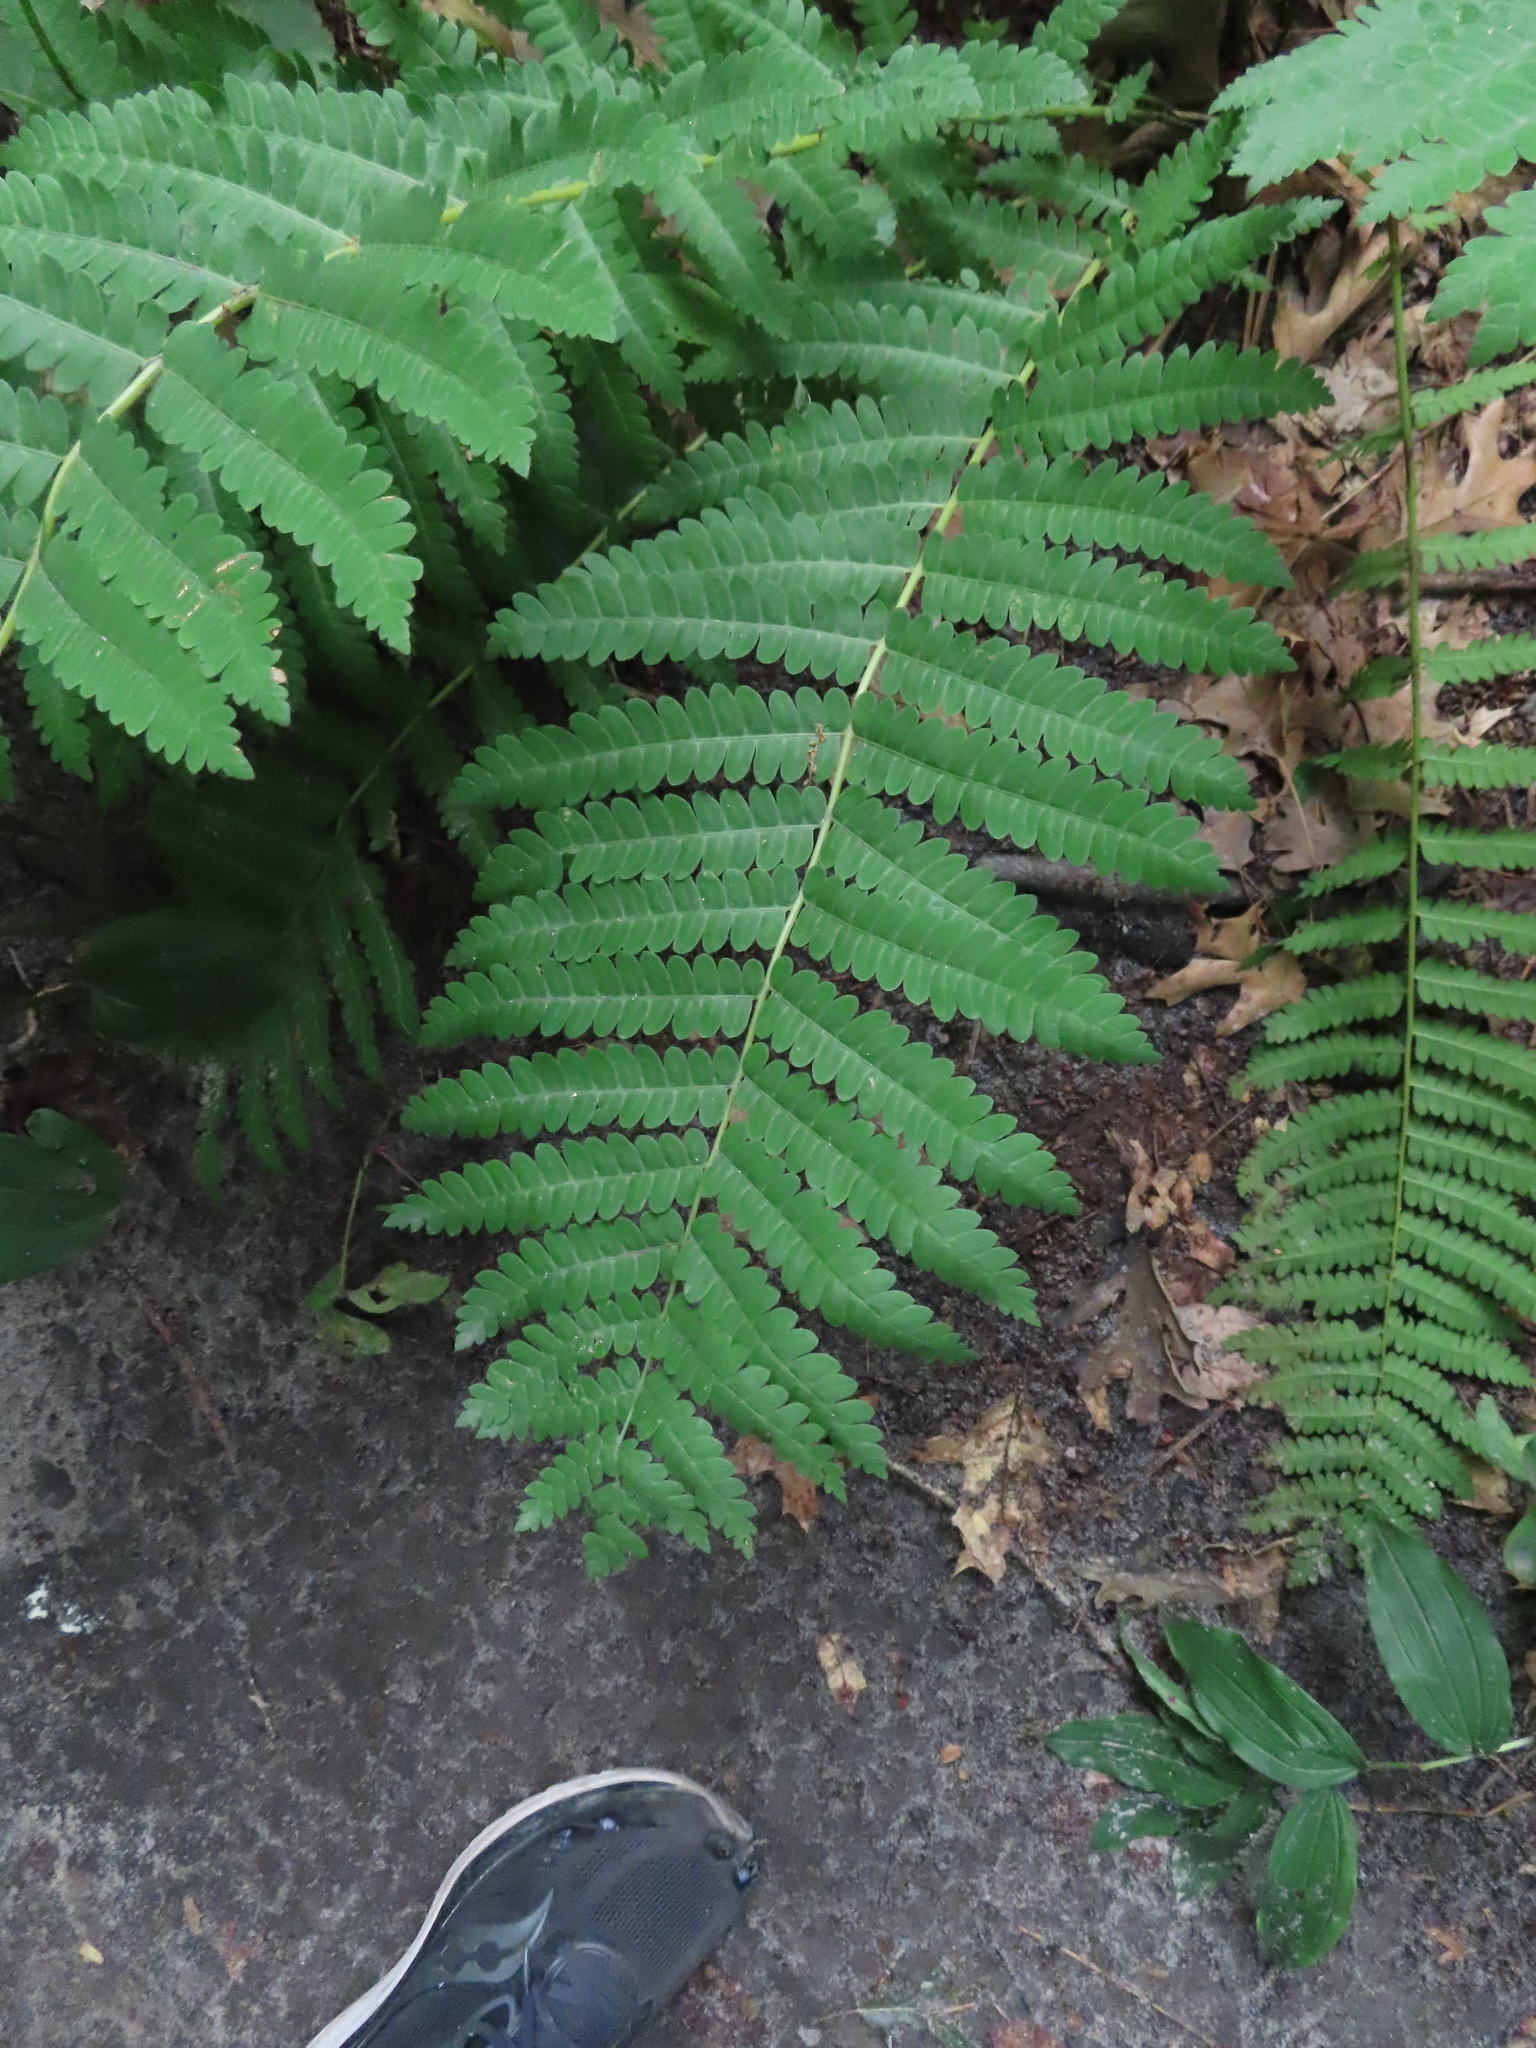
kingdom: Plantae
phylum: Tracheophyta
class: Polypodiopsida
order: Osmundales
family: Osmundaceae
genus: Claytosmunda
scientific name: Claytosmunda claytoniana
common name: Clayton's fern
